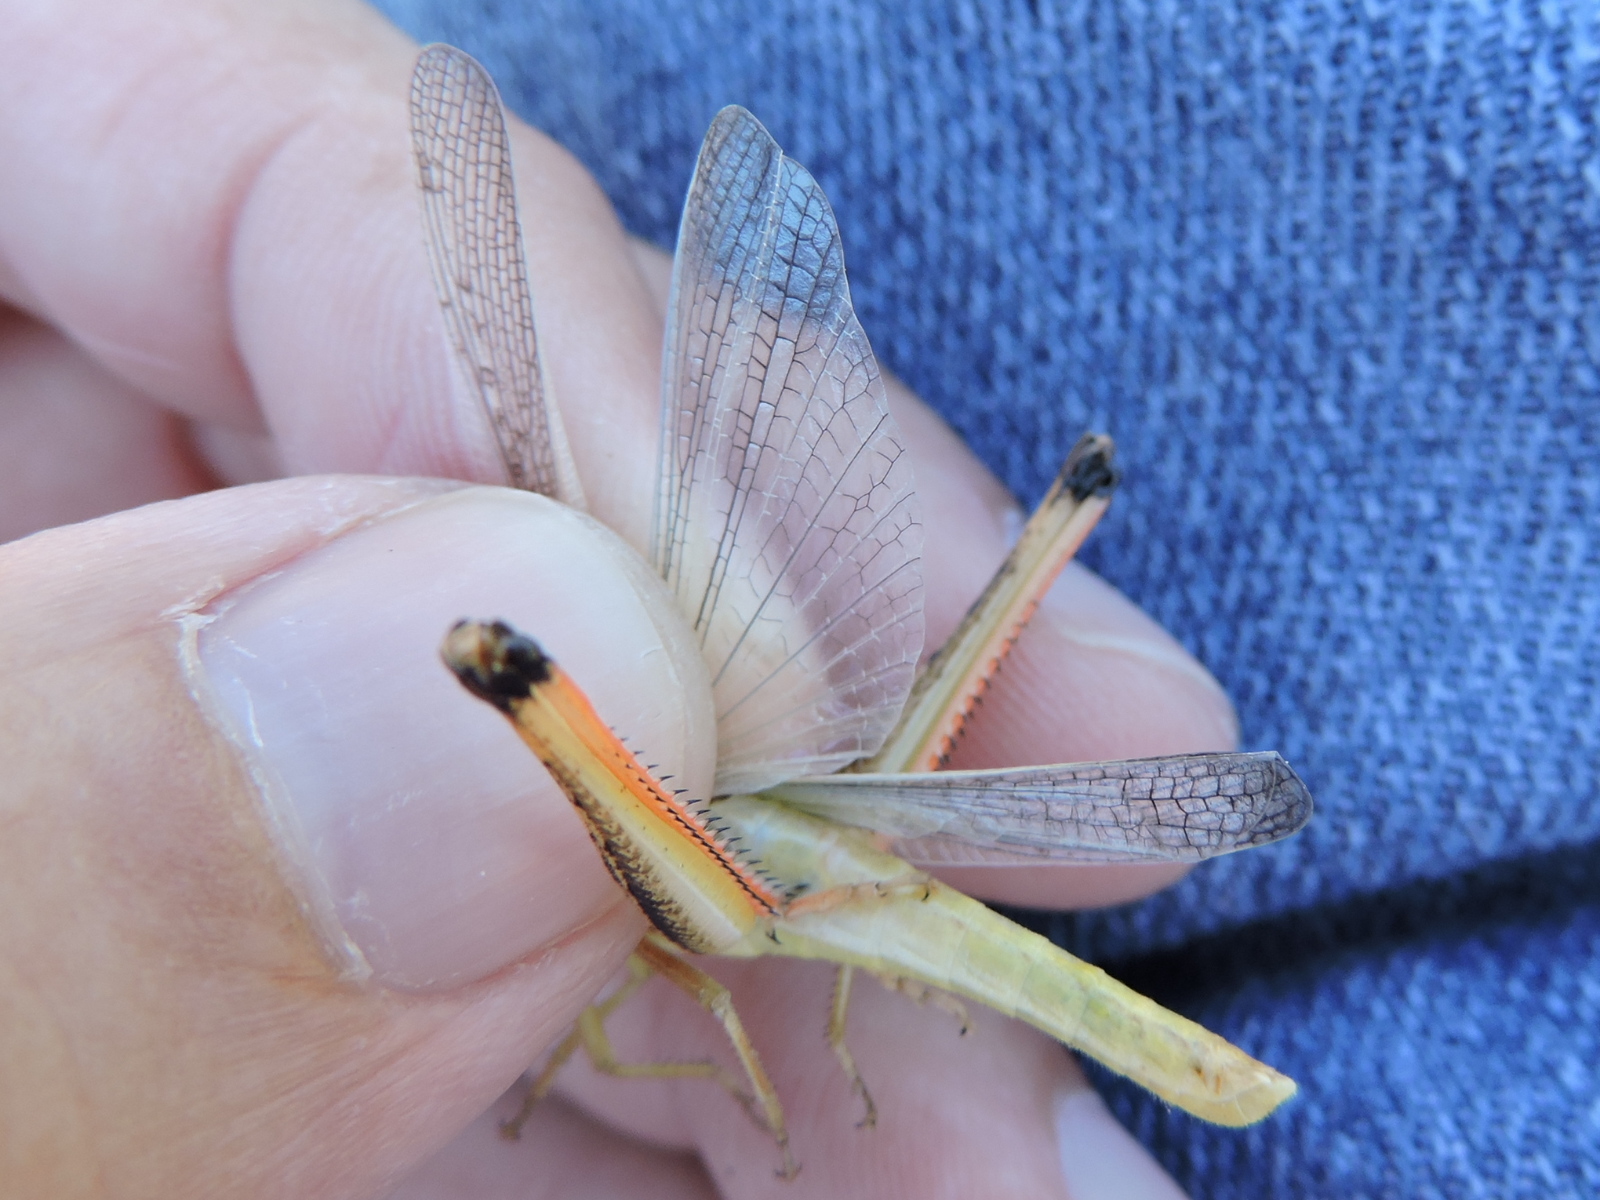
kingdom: Animalia
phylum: Arthropoda
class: Insecta
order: Orthoptera
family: Acrididae
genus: Mermiria
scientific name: Mermiria bivittata
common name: Two-striped mermiria grasshopper
